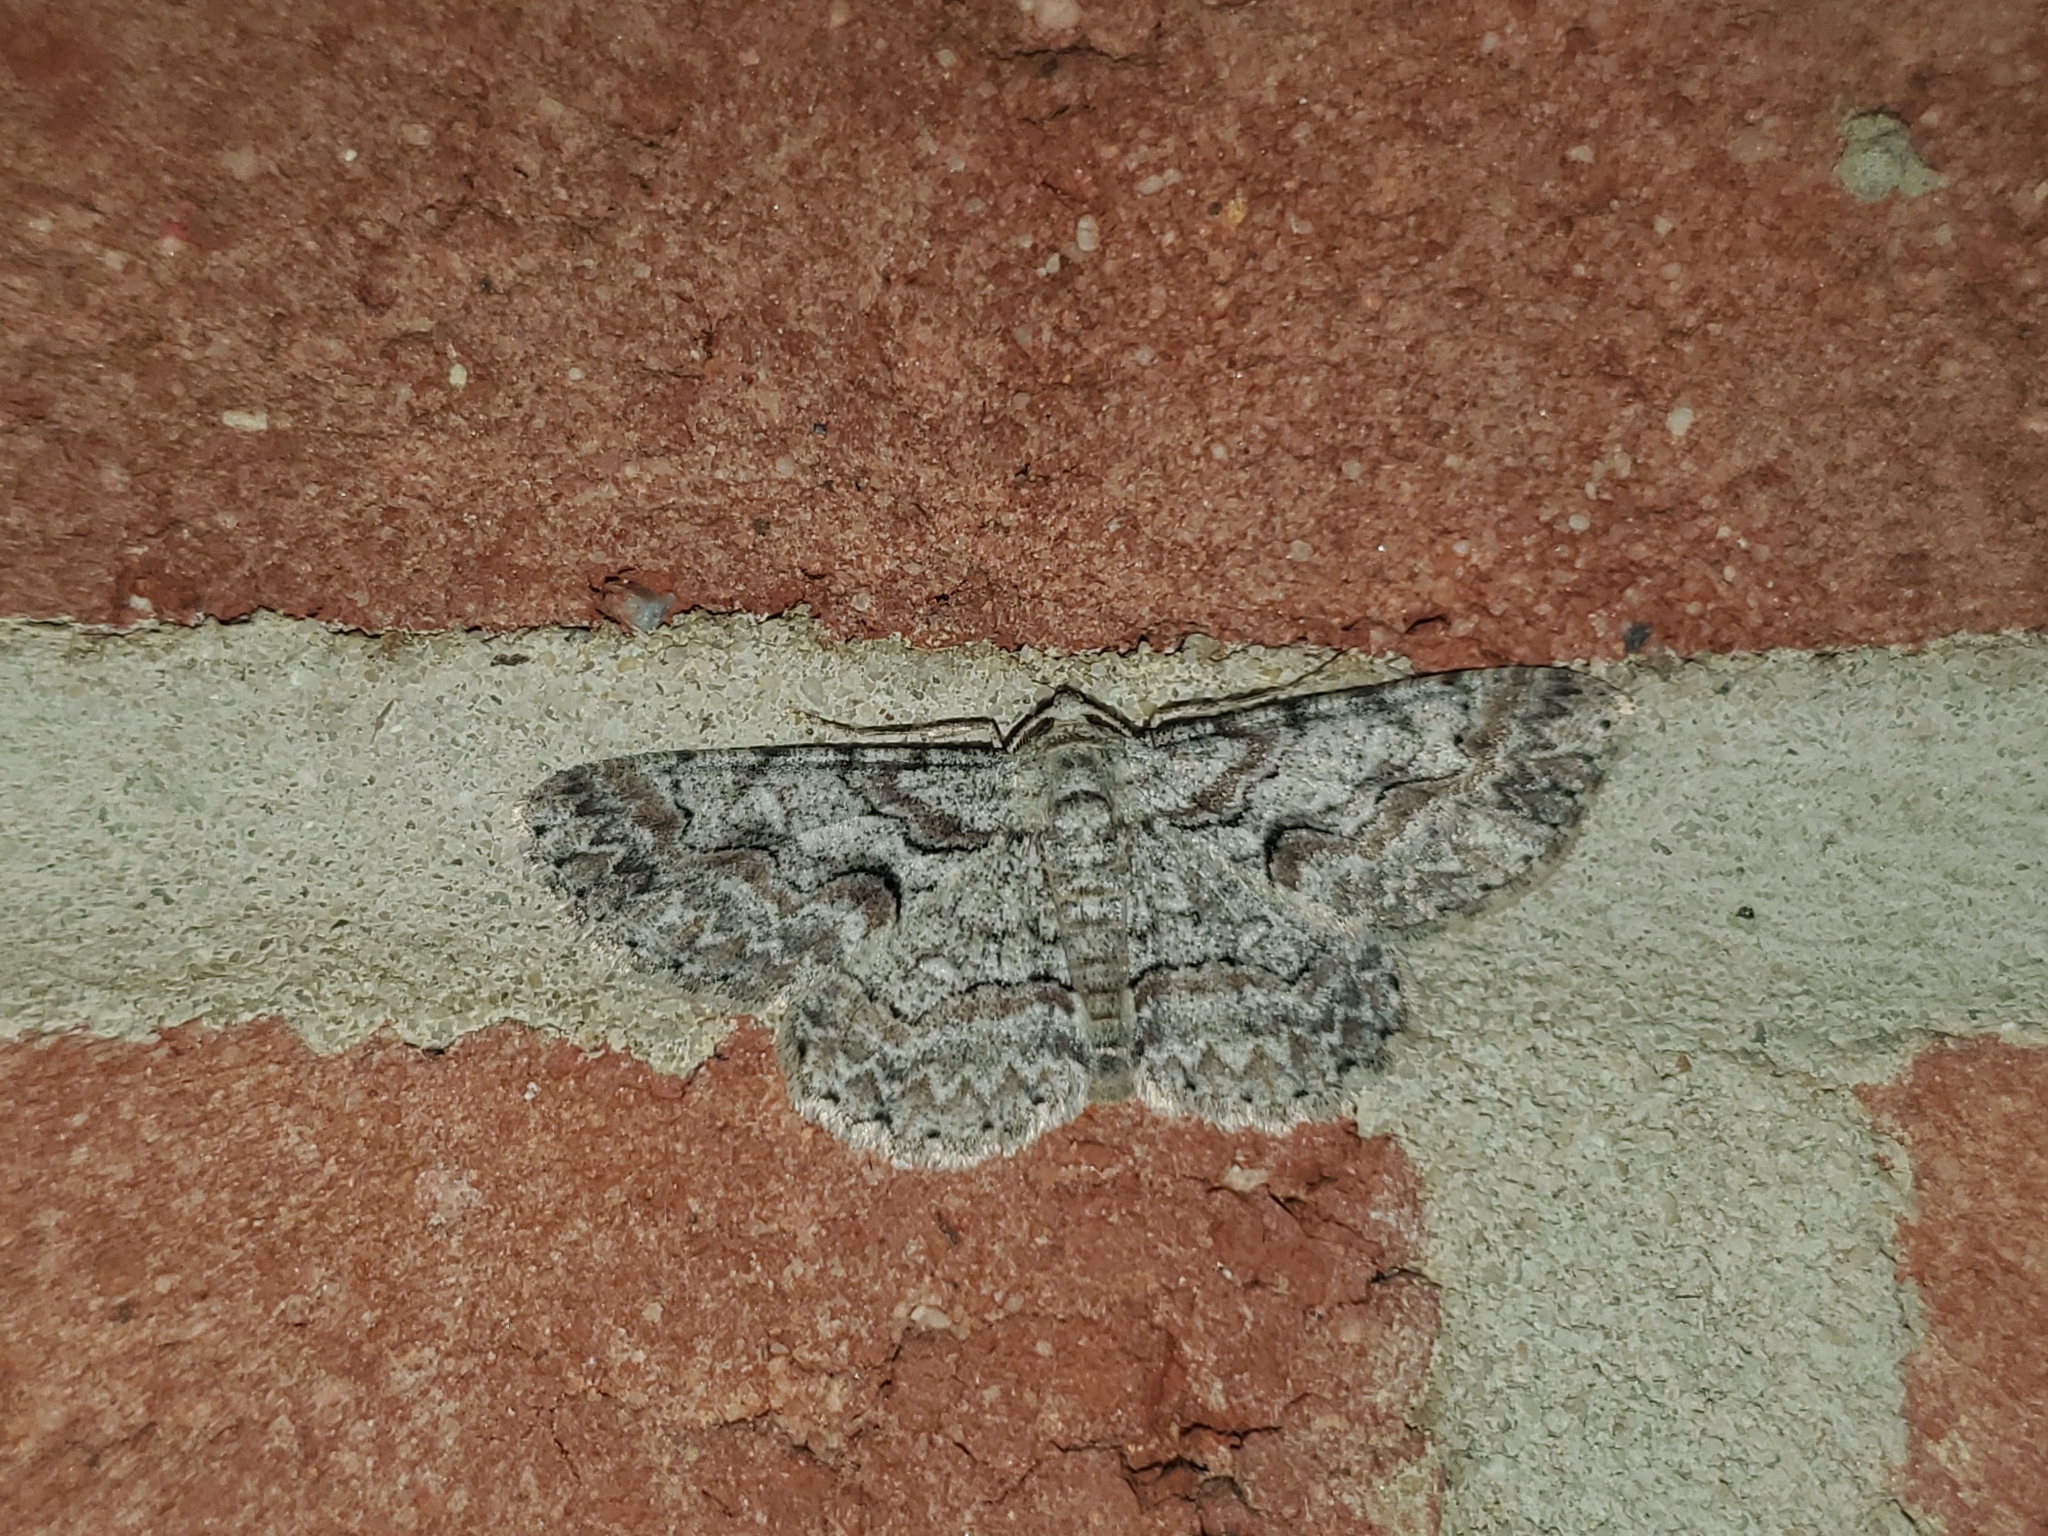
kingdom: Animalia
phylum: Arthropoda
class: Insecta
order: Lepidoptera
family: Geometridae
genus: Iridopsis
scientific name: Iridopsis defectaria
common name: Brown-shaded gray
